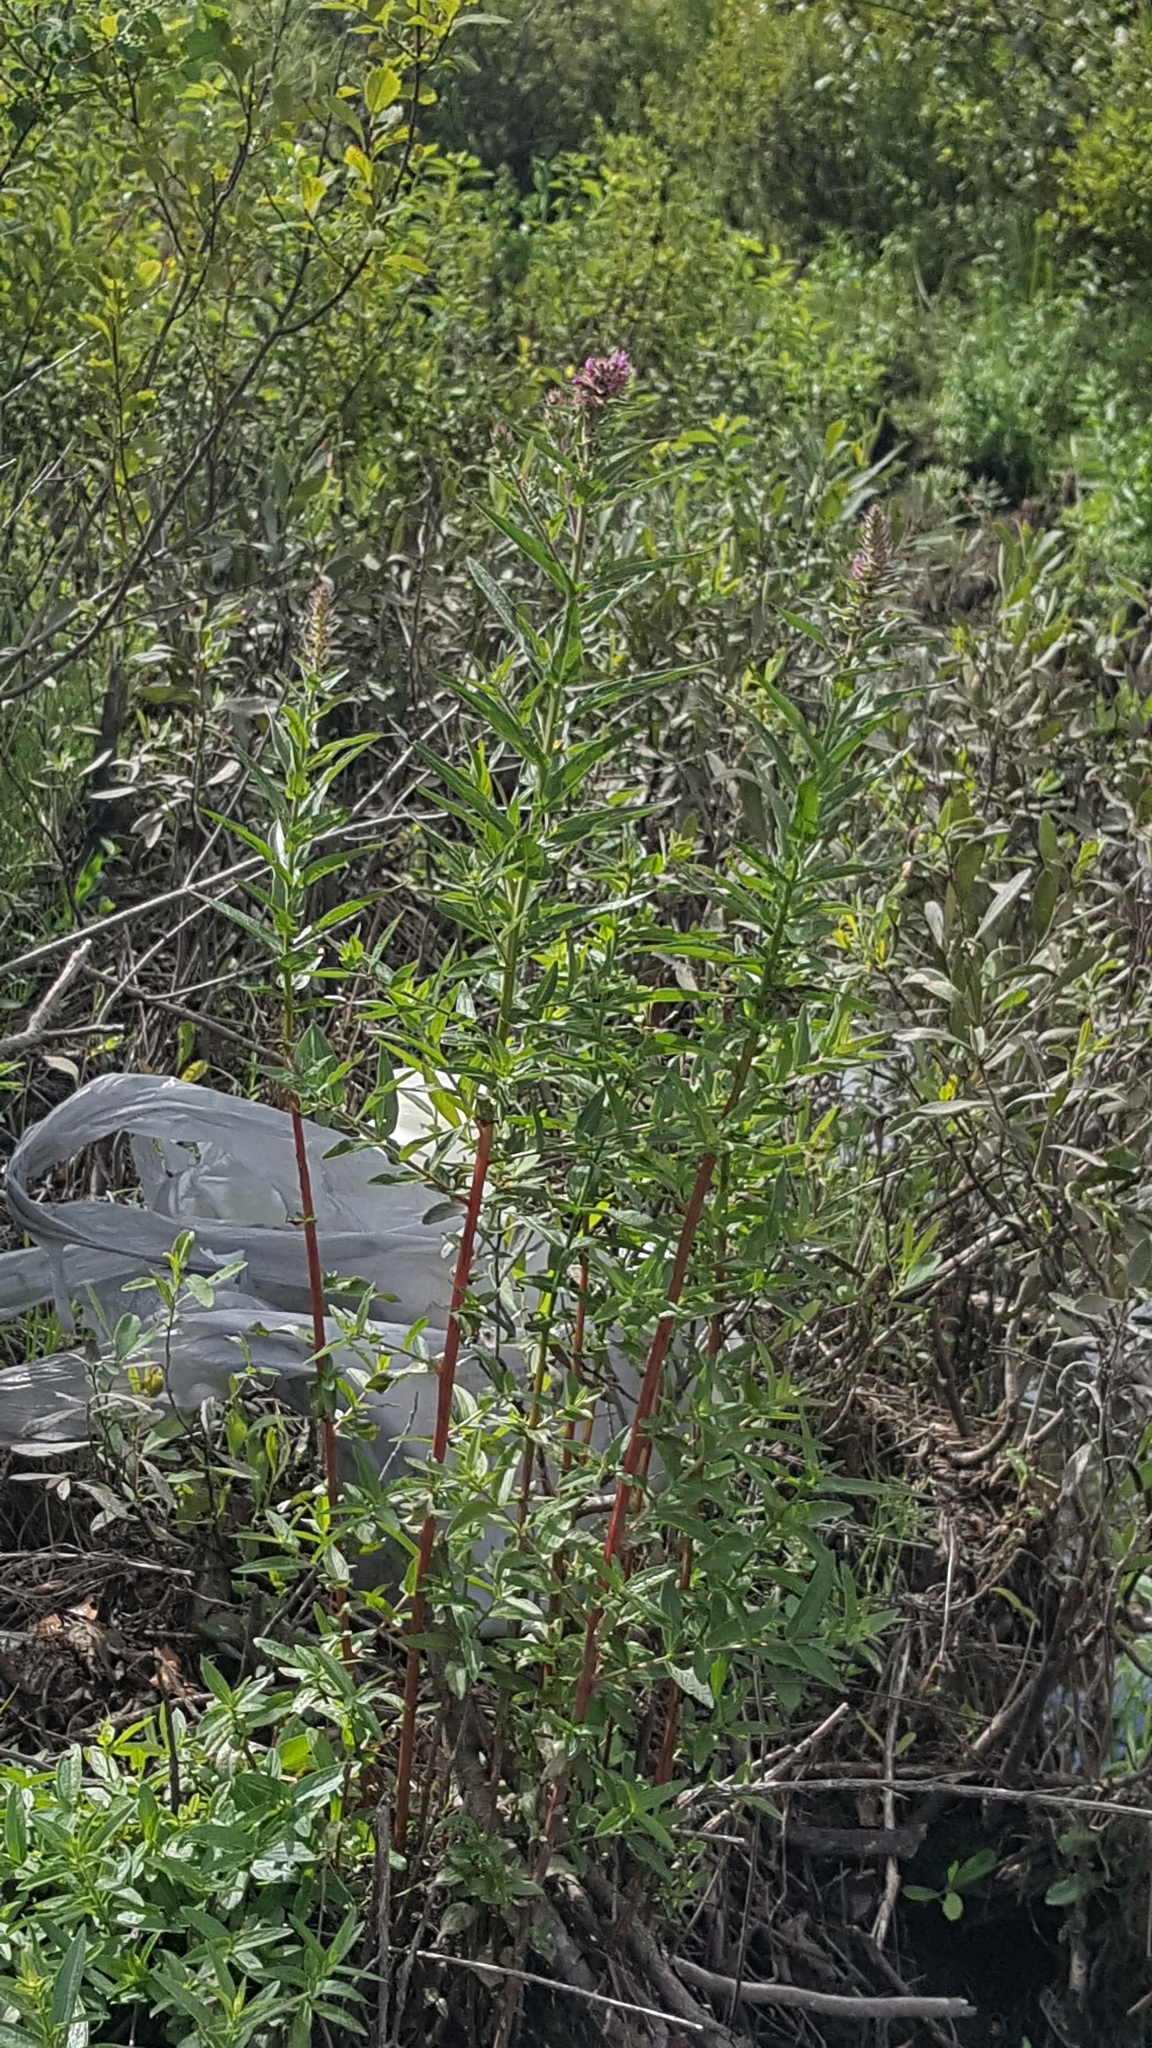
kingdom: Plantae
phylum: Tracheophyta
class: Magnoliopsida
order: Myrtales
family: Lythraceae
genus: Lythrum
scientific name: Lythrum salicaria
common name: Purple loosestrife
